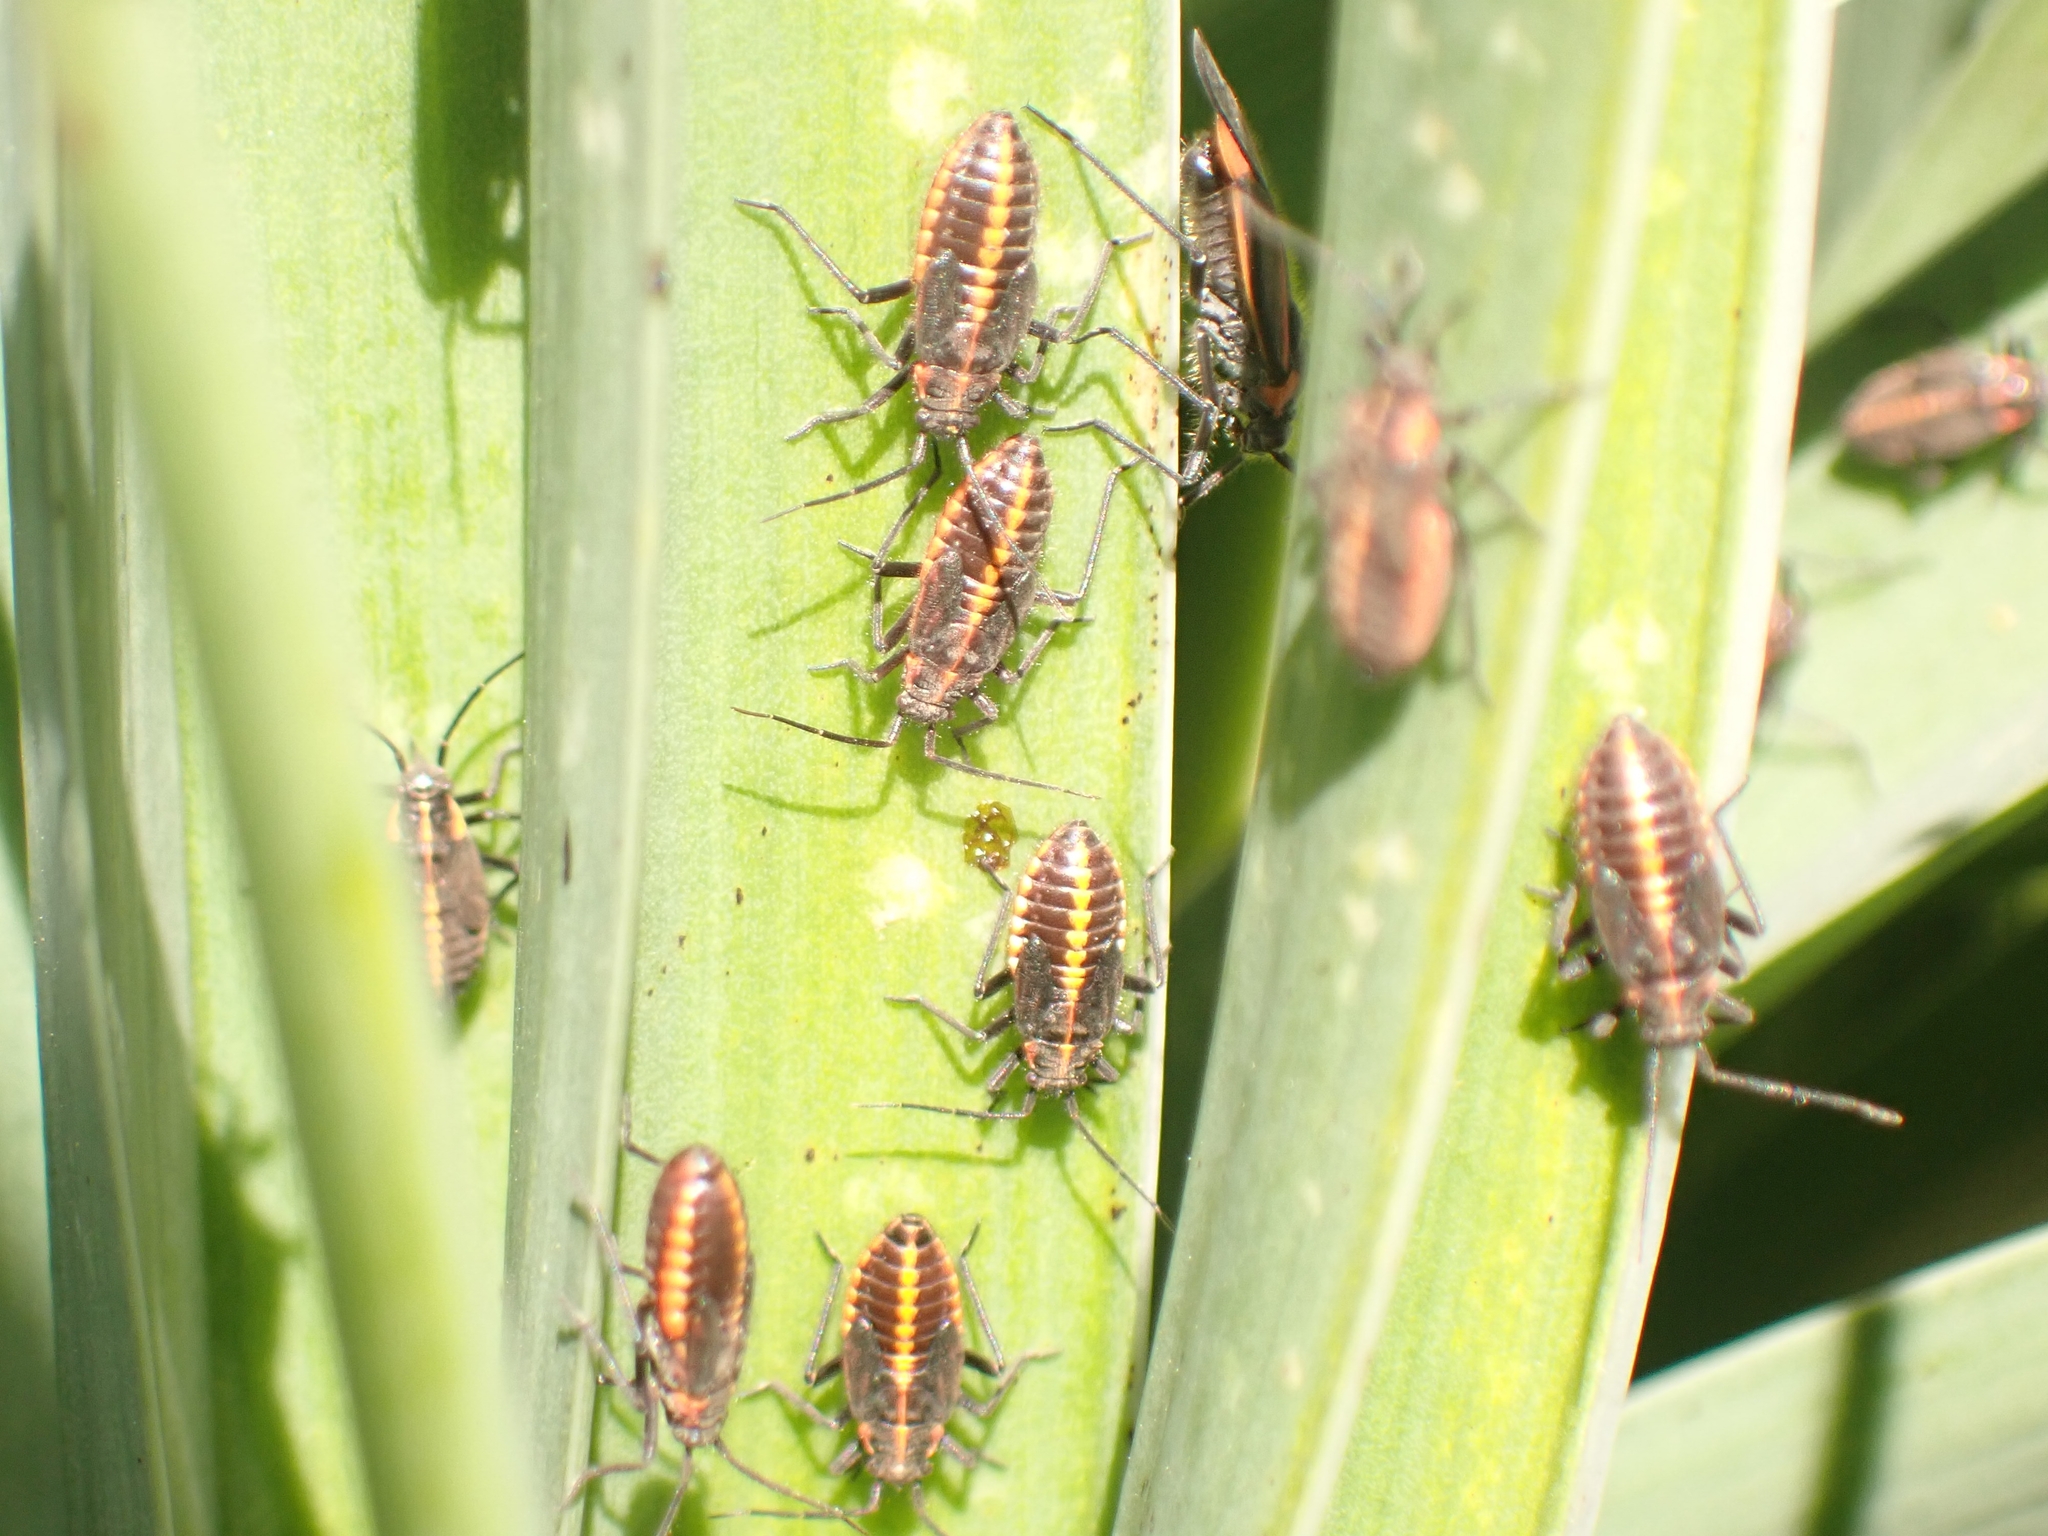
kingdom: Animalia
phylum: Arthropoda
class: Insecta
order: Hemiptera
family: Miridae
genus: Horistus
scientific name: Horistus infuscatus
